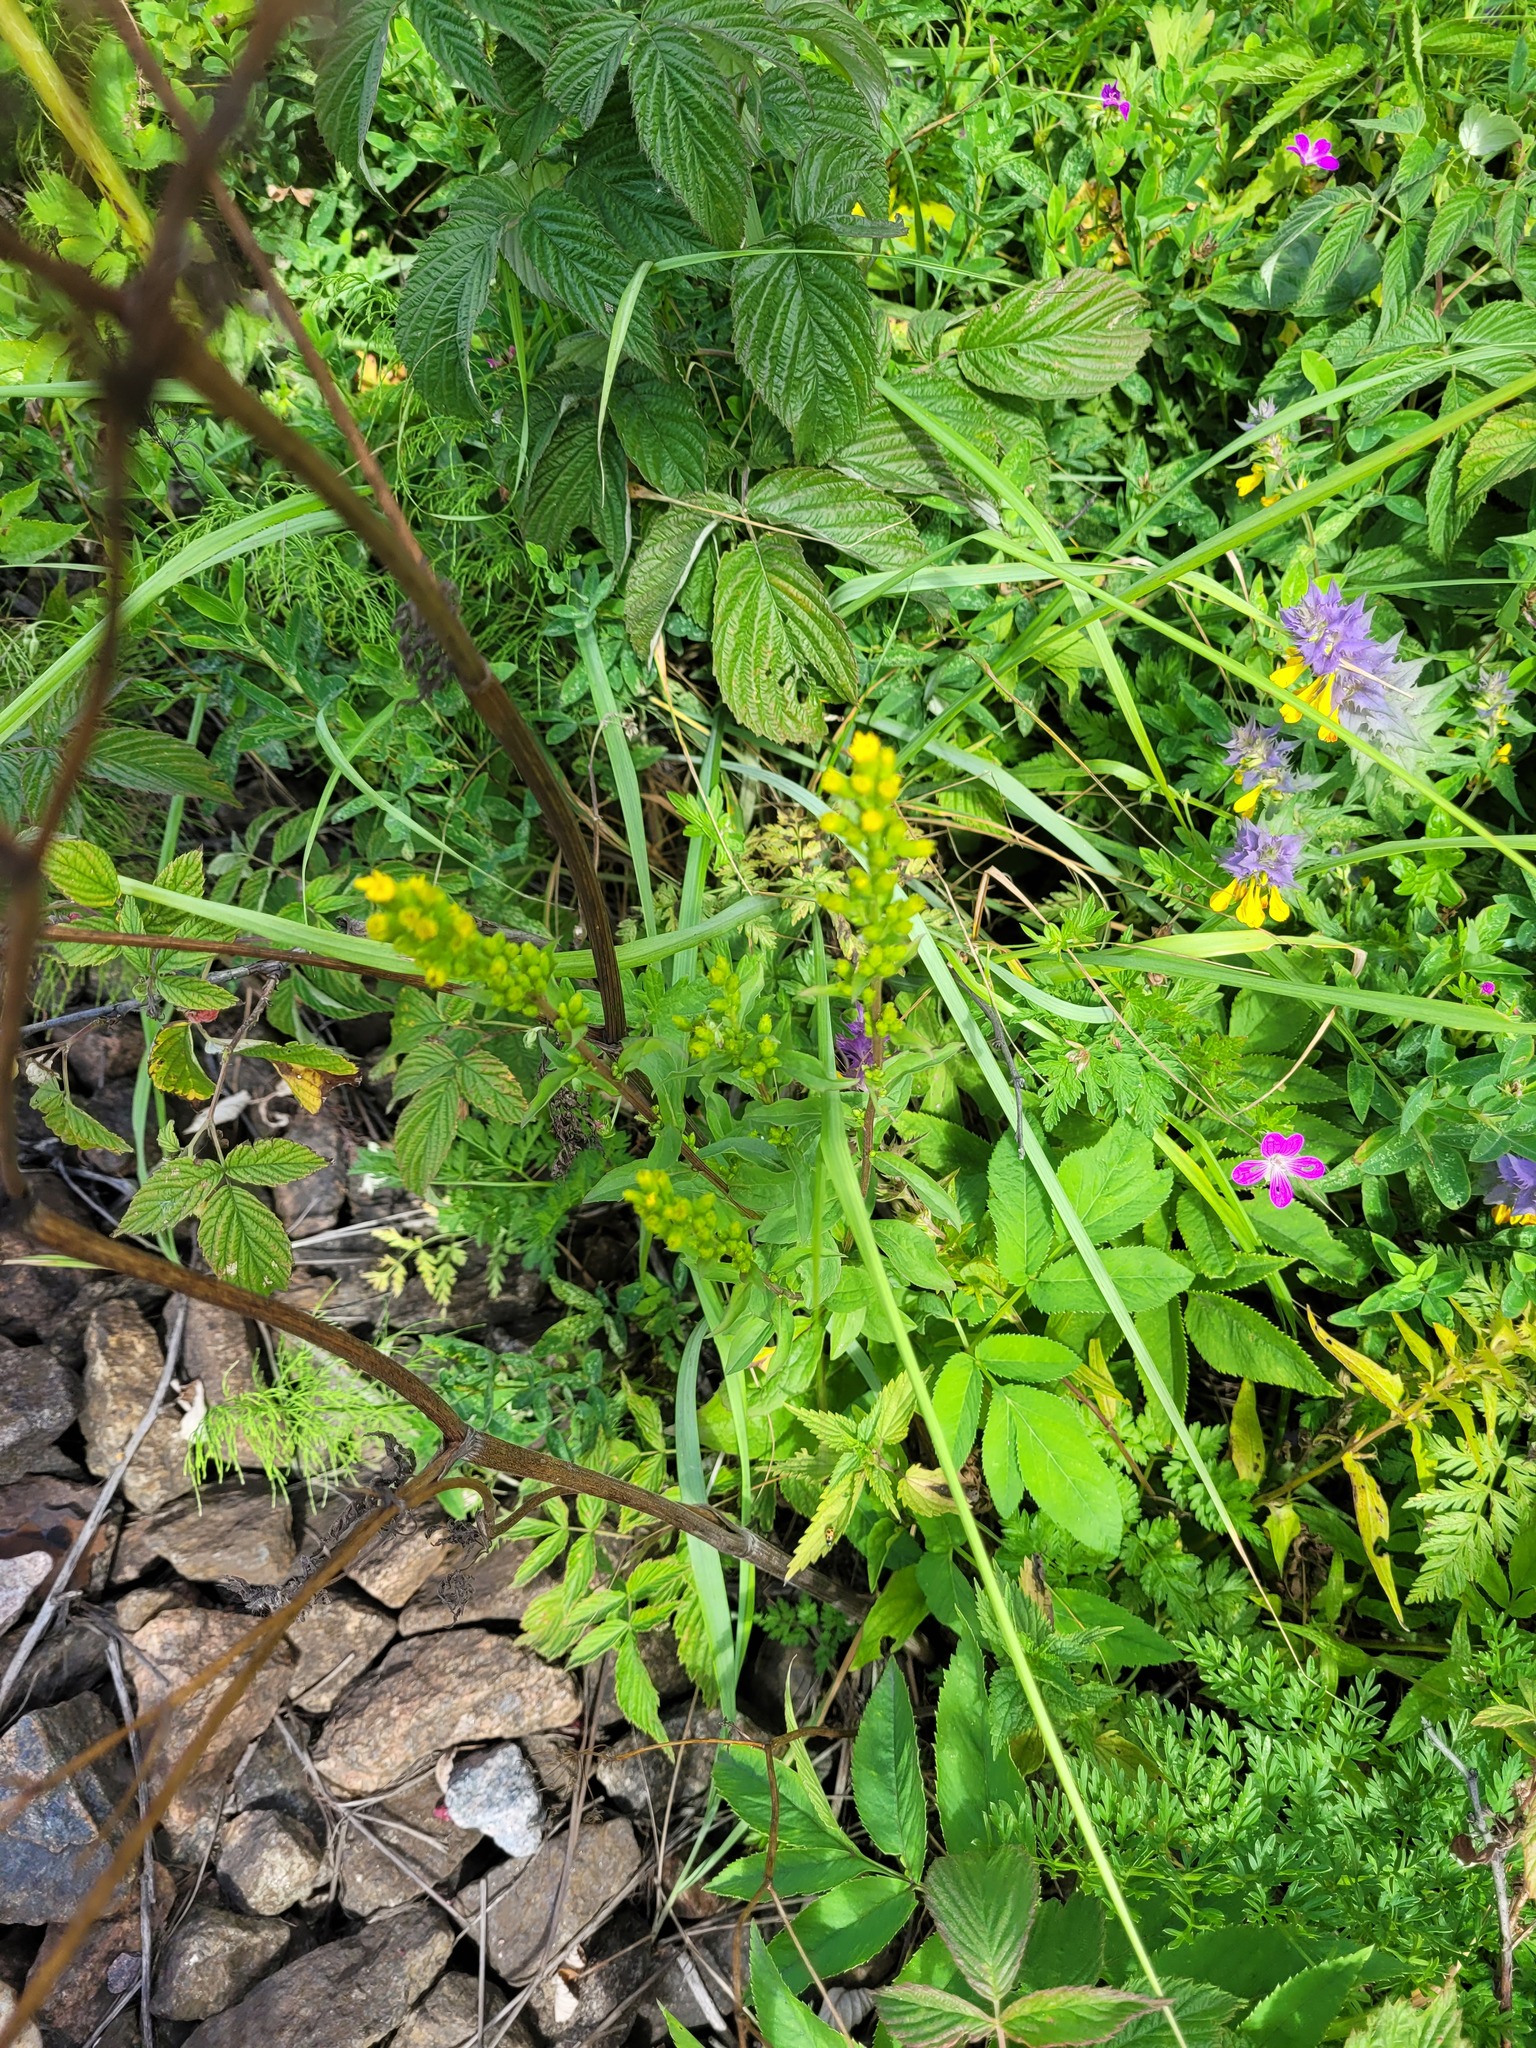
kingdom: Plantae
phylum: Tracheophyta
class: Magnoliopsida
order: Asterales
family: Asteraceae
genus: Solidago
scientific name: Solidago virgaurea
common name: Goldenrod
